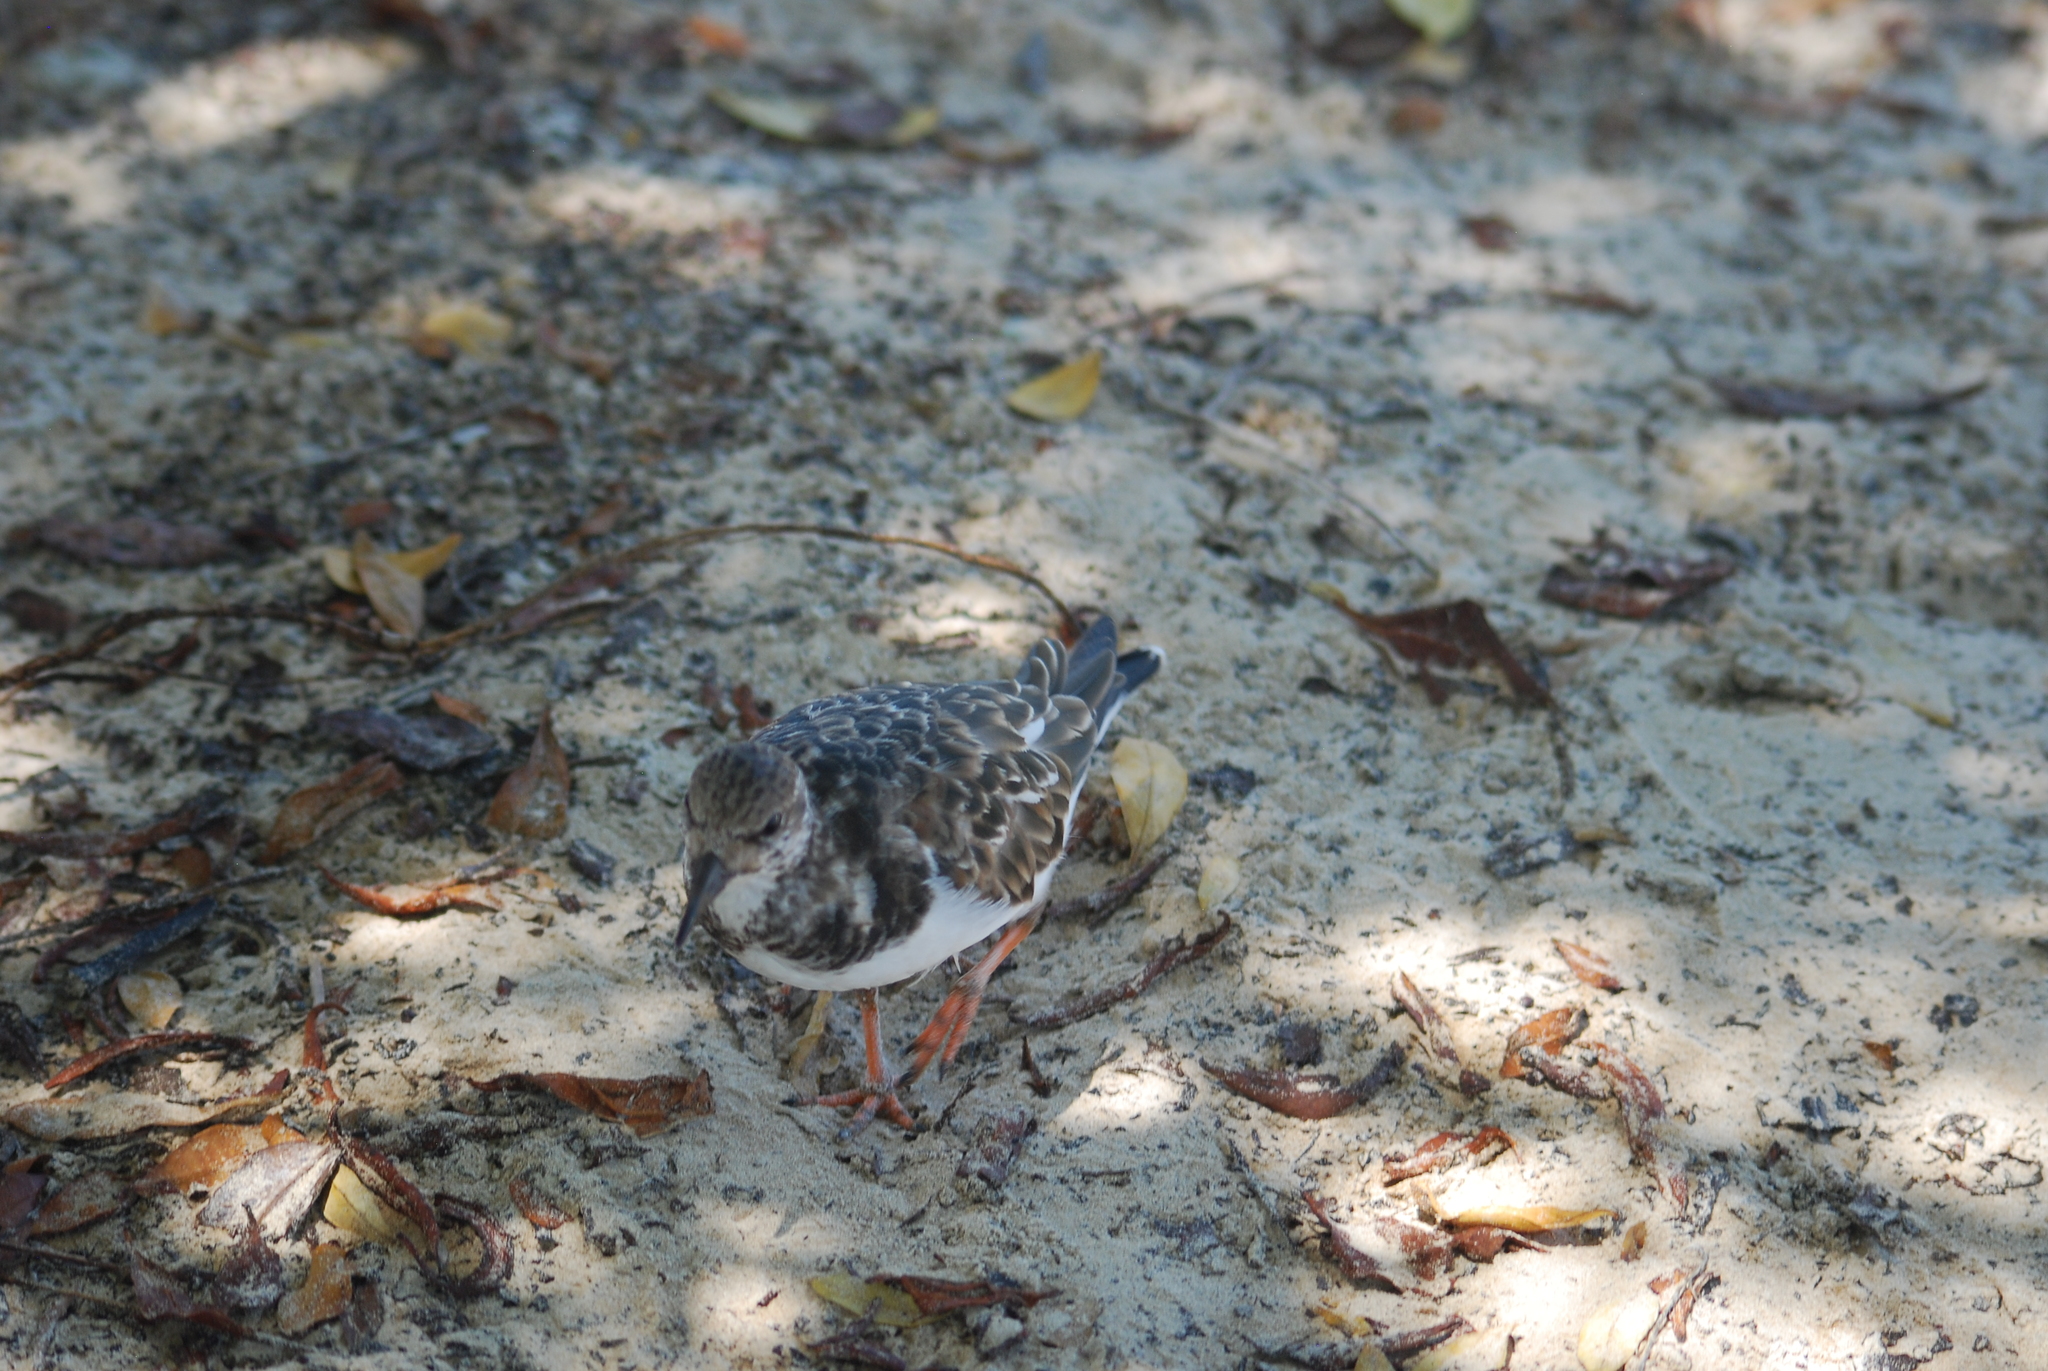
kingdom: Animalia
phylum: Chordata
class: Aves
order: Charadriiformes
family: Scolopacidae
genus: Arenaria
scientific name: Arenaria interpres
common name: Ruddy turnstone
